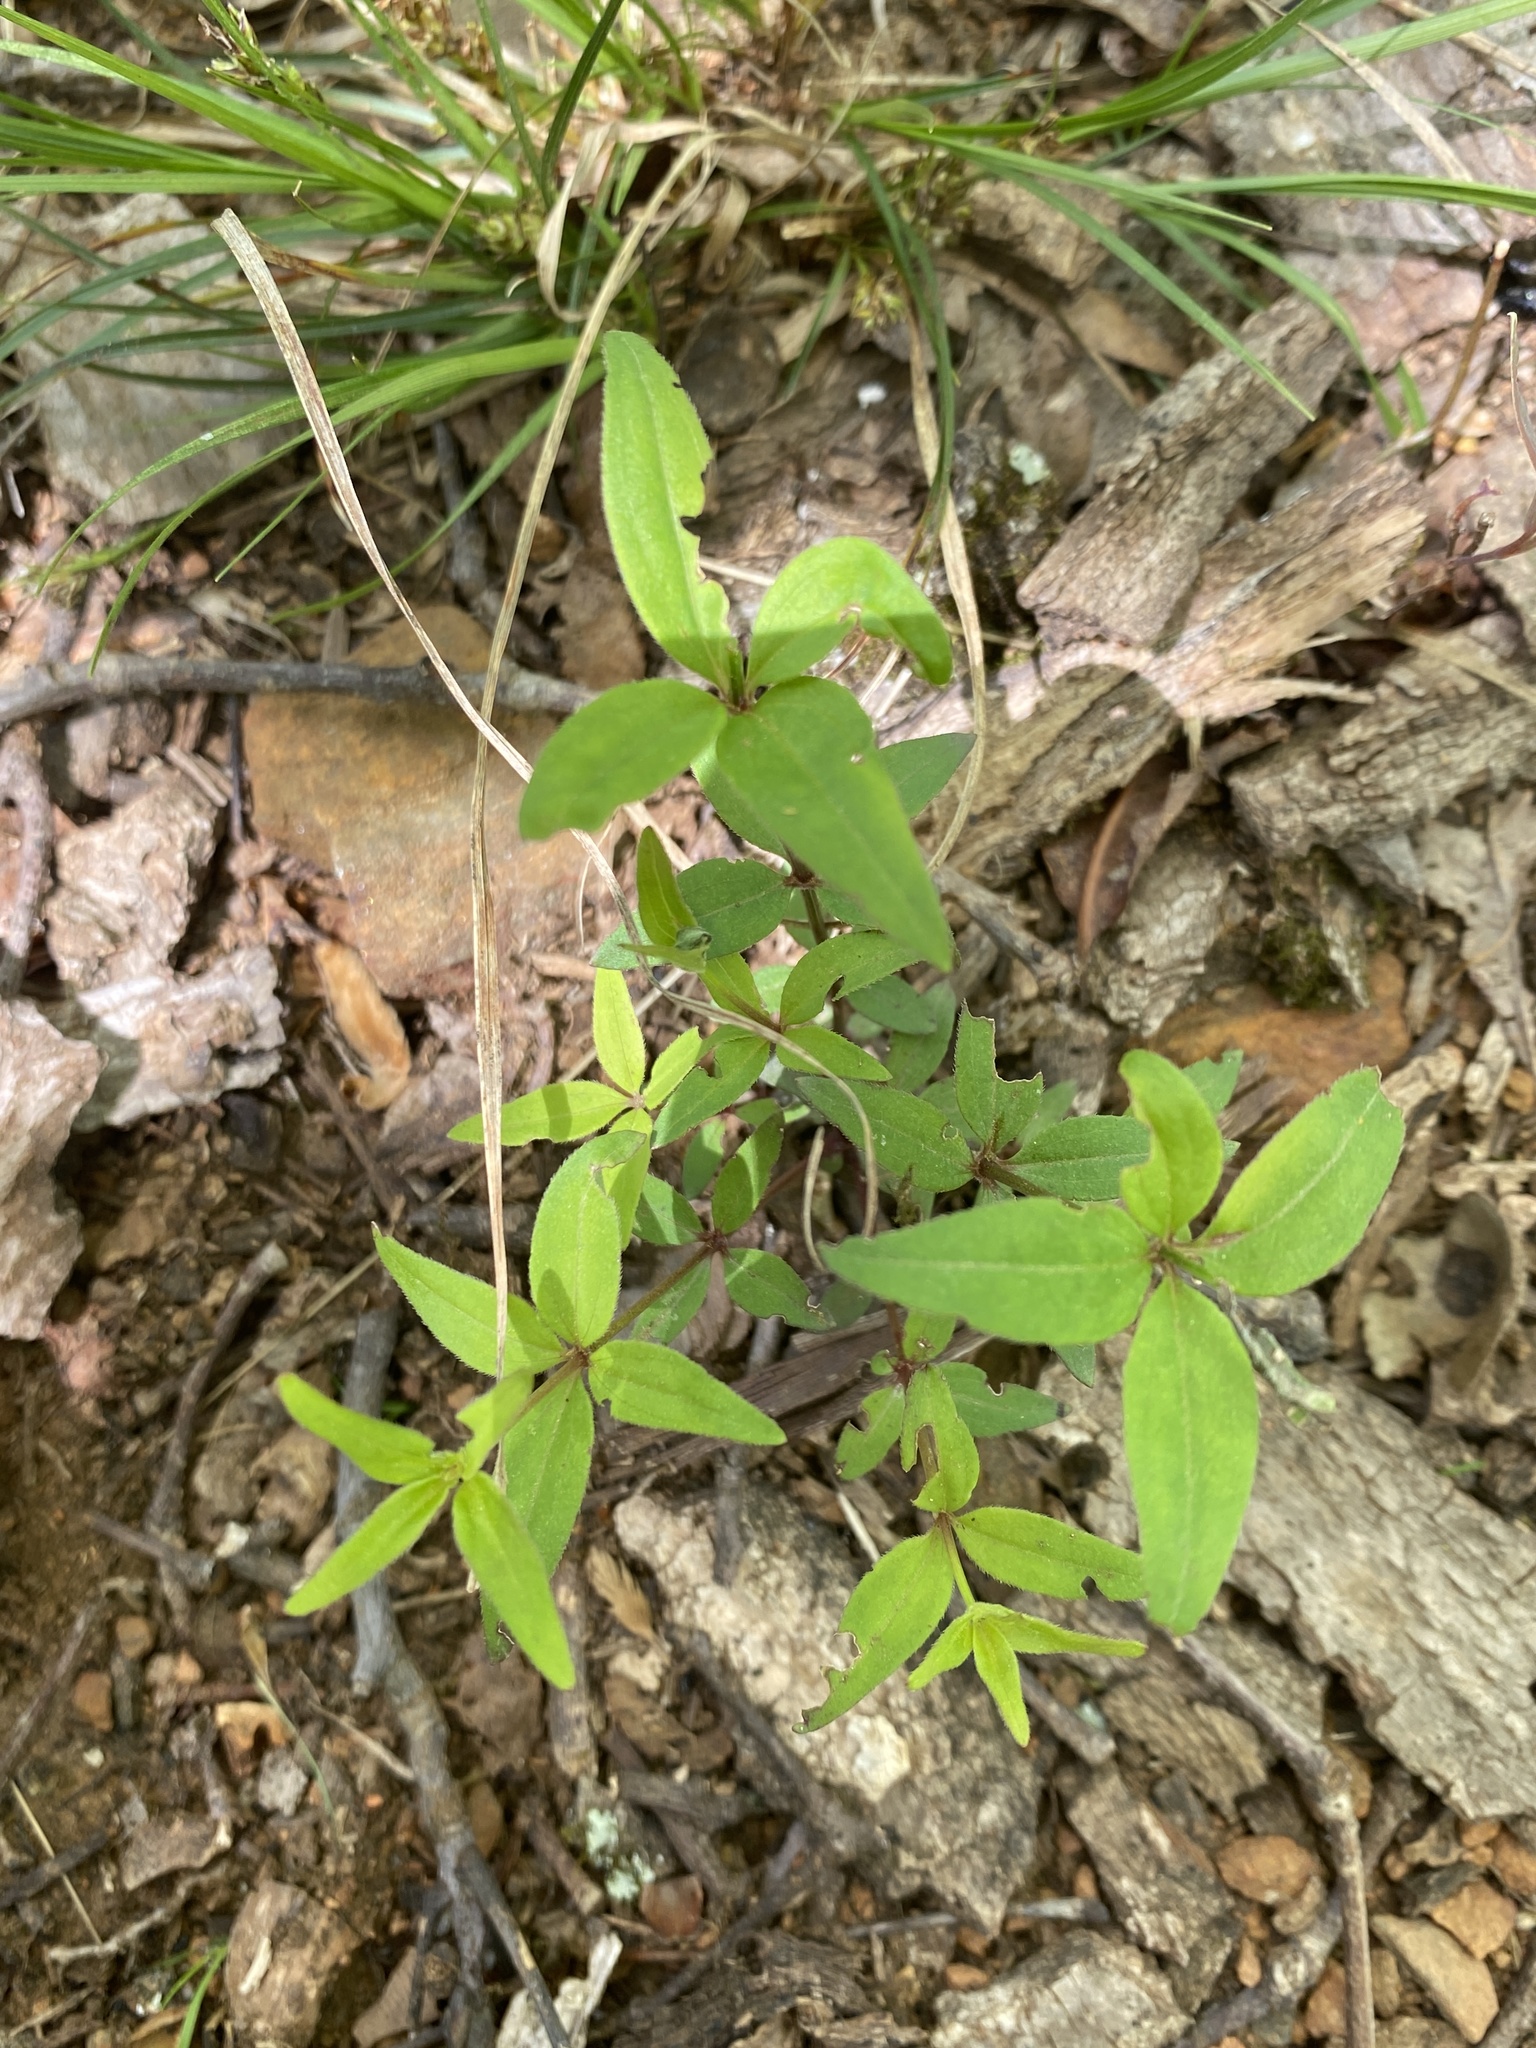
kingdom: Plantae
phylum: Tracheophyta
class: Magnoliopsida
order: Gentianales
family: Rubiaceae
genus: Galium
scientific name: Galium lanceolatum
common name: Lance-leaved wild licorice
